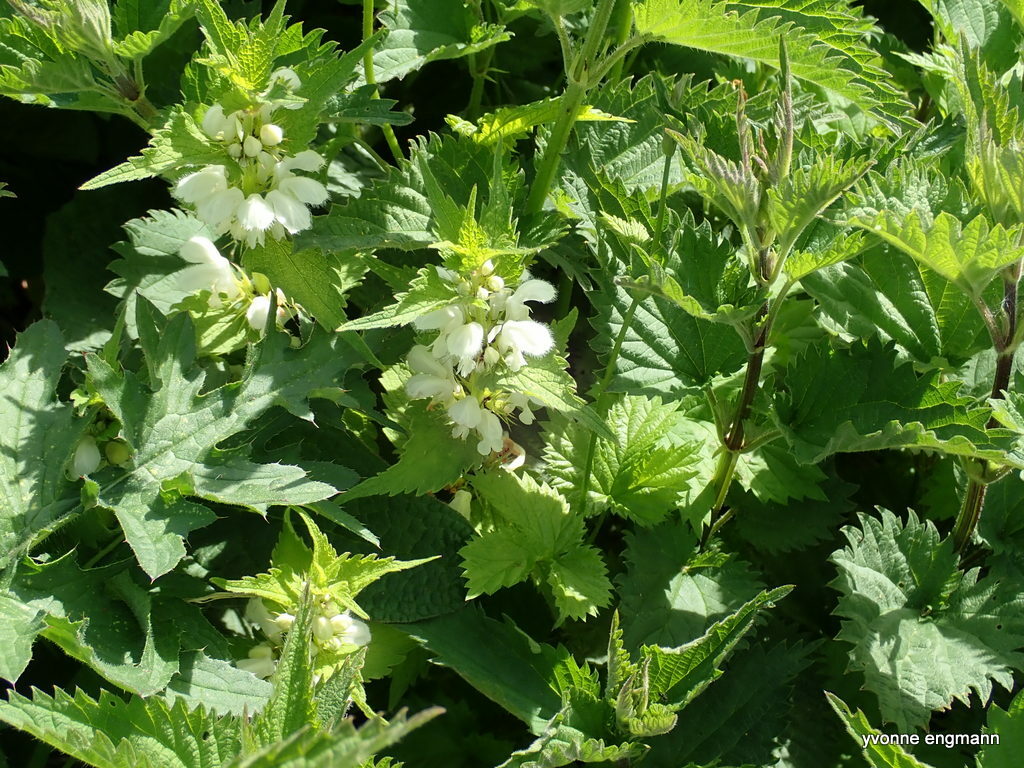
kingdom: Plantae
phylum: Tracheophyta
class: Magnoliopsida
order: Lamiales
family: Lamiaceae
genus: Lamium
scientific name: Lamium album
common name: White dead-nettle
